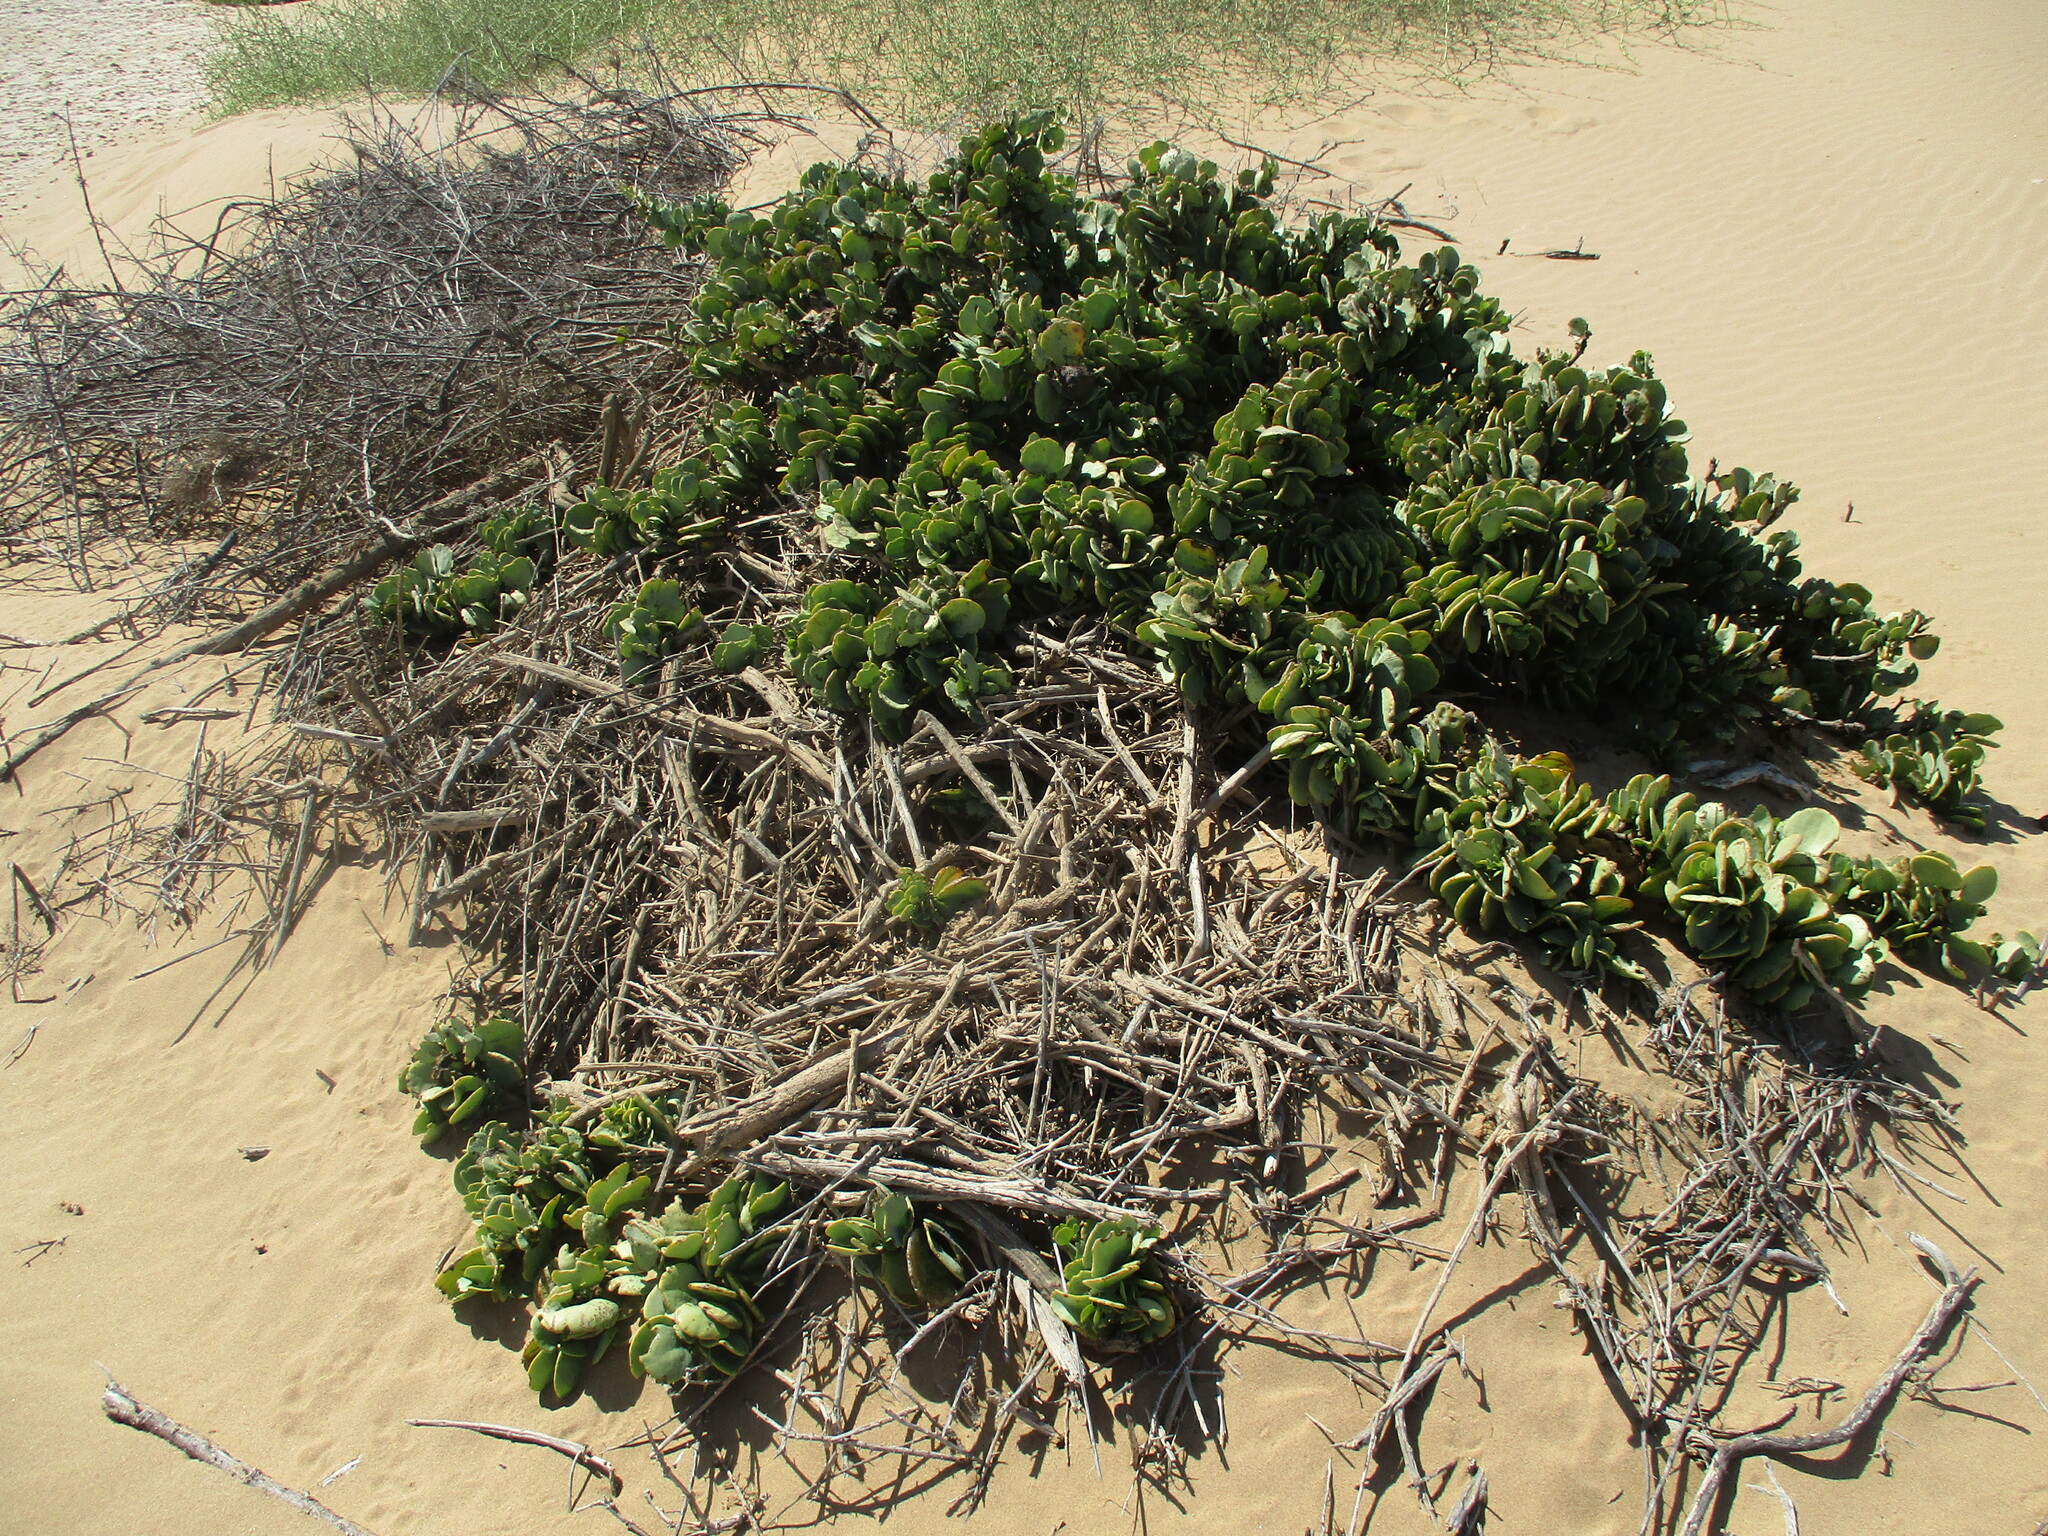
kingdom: Plantae
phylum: Tracheophyta
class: Magnoliopsida
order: Zygophyllales
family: Zygophyllaceae
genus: Tetraena
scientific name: Tetraena stapfii
